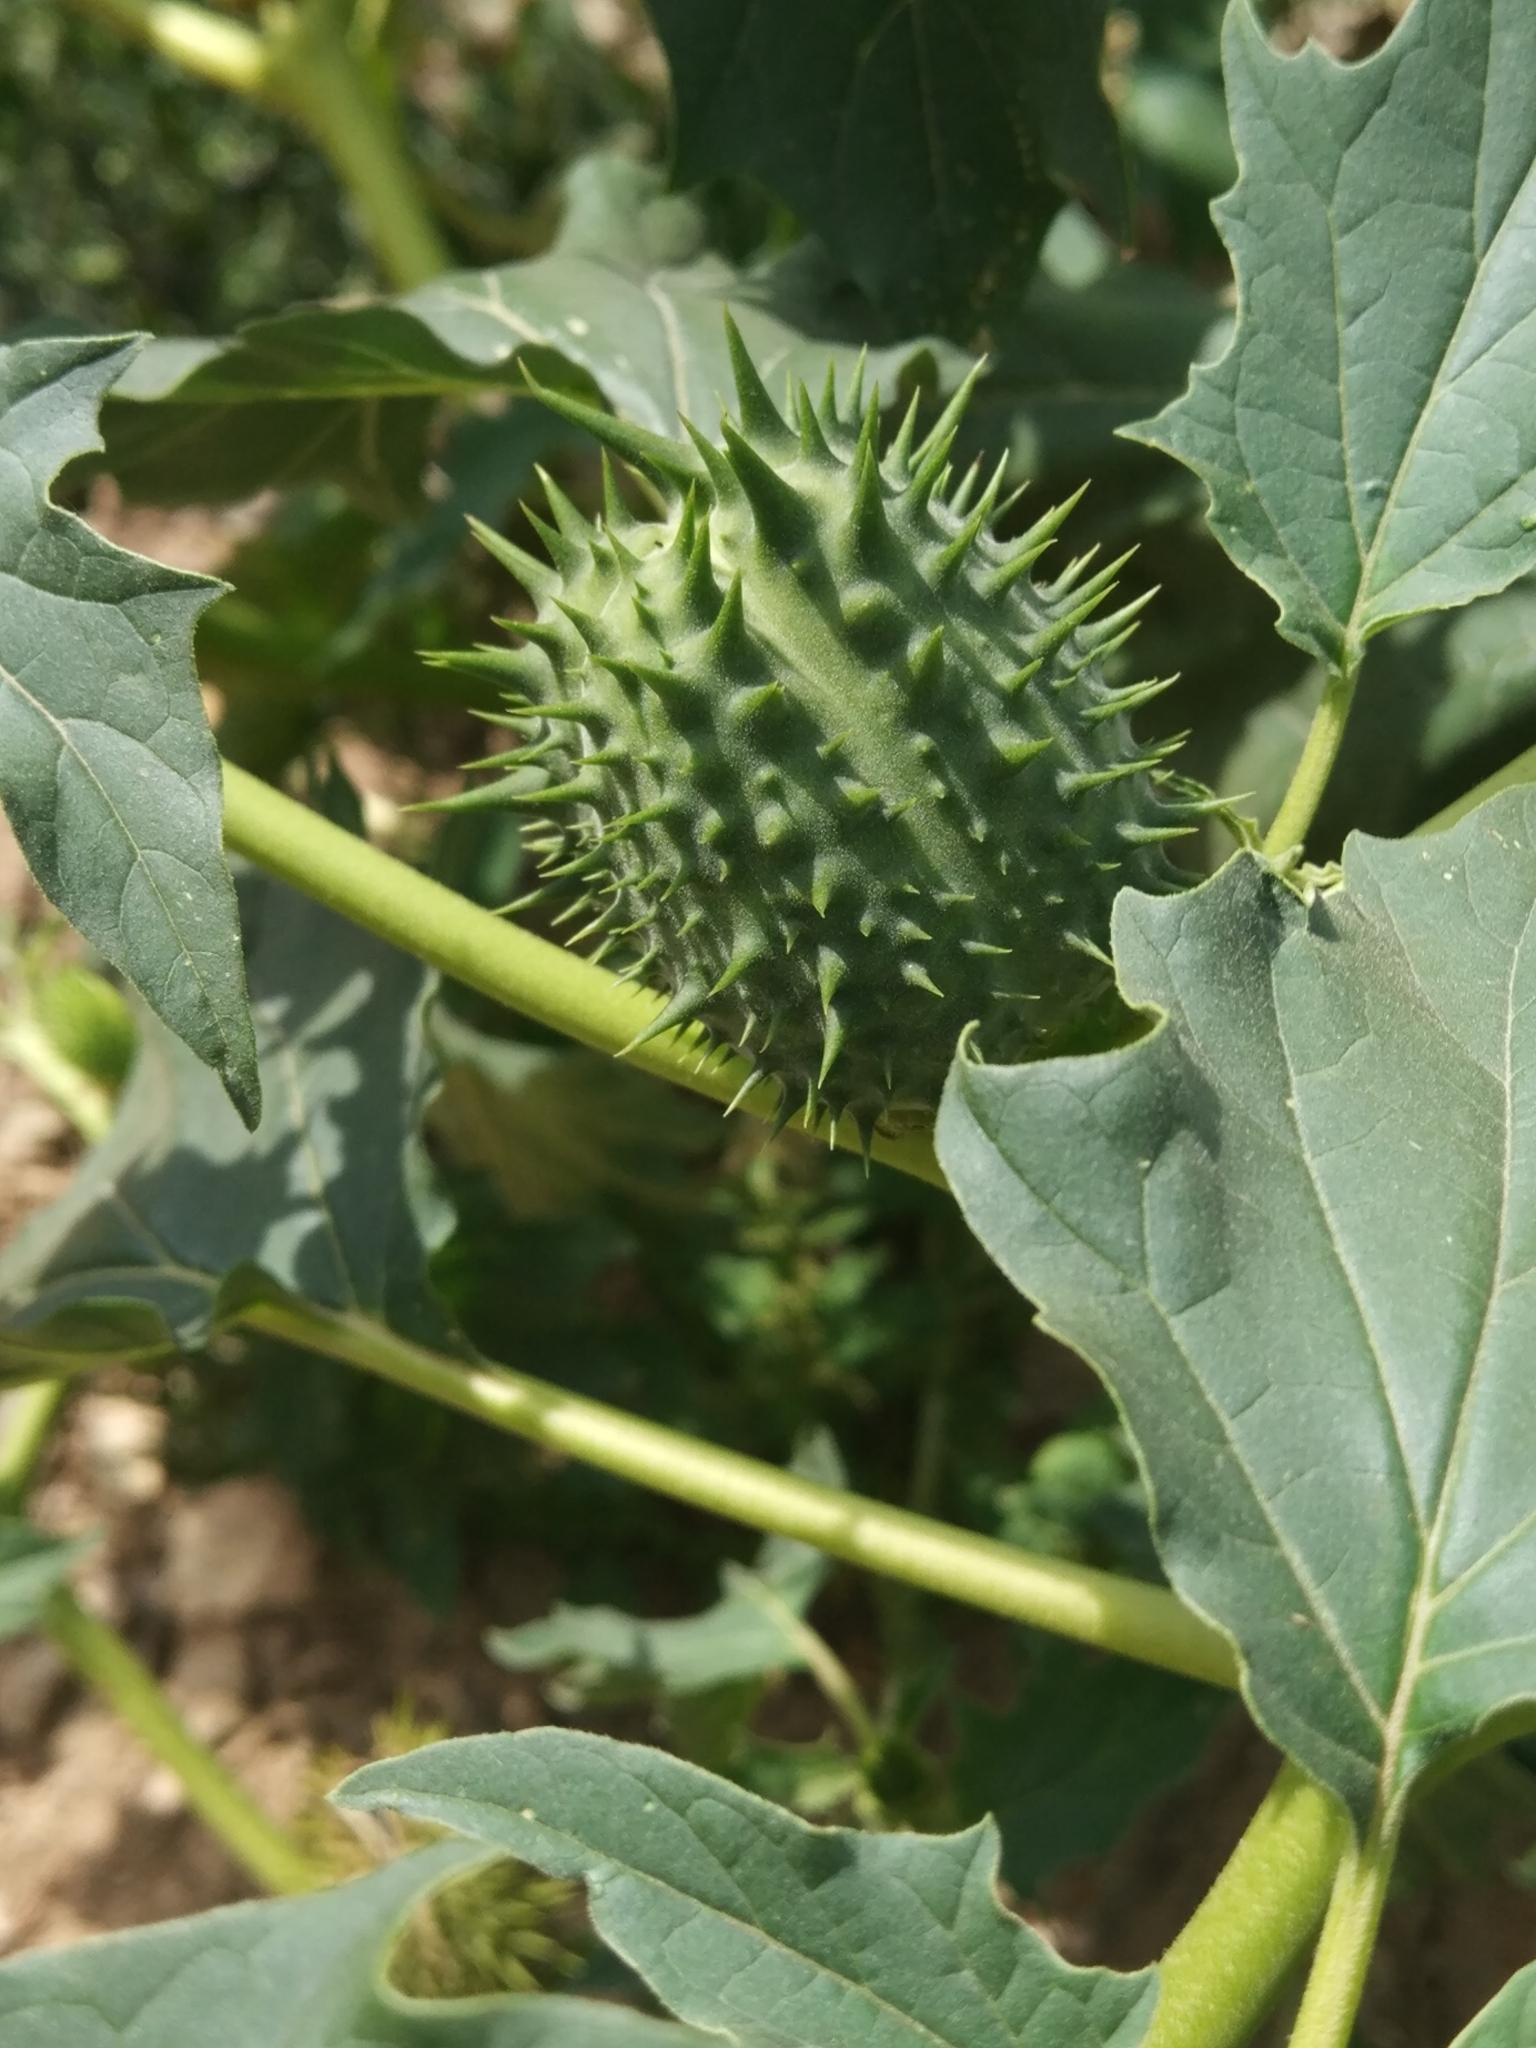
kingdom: Plantae
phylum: Tracheophyta
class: Magnoliopsida
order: Solanales
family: Solanaceae
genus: Datura
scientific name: Datura stramonium
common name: Thorn-apple
